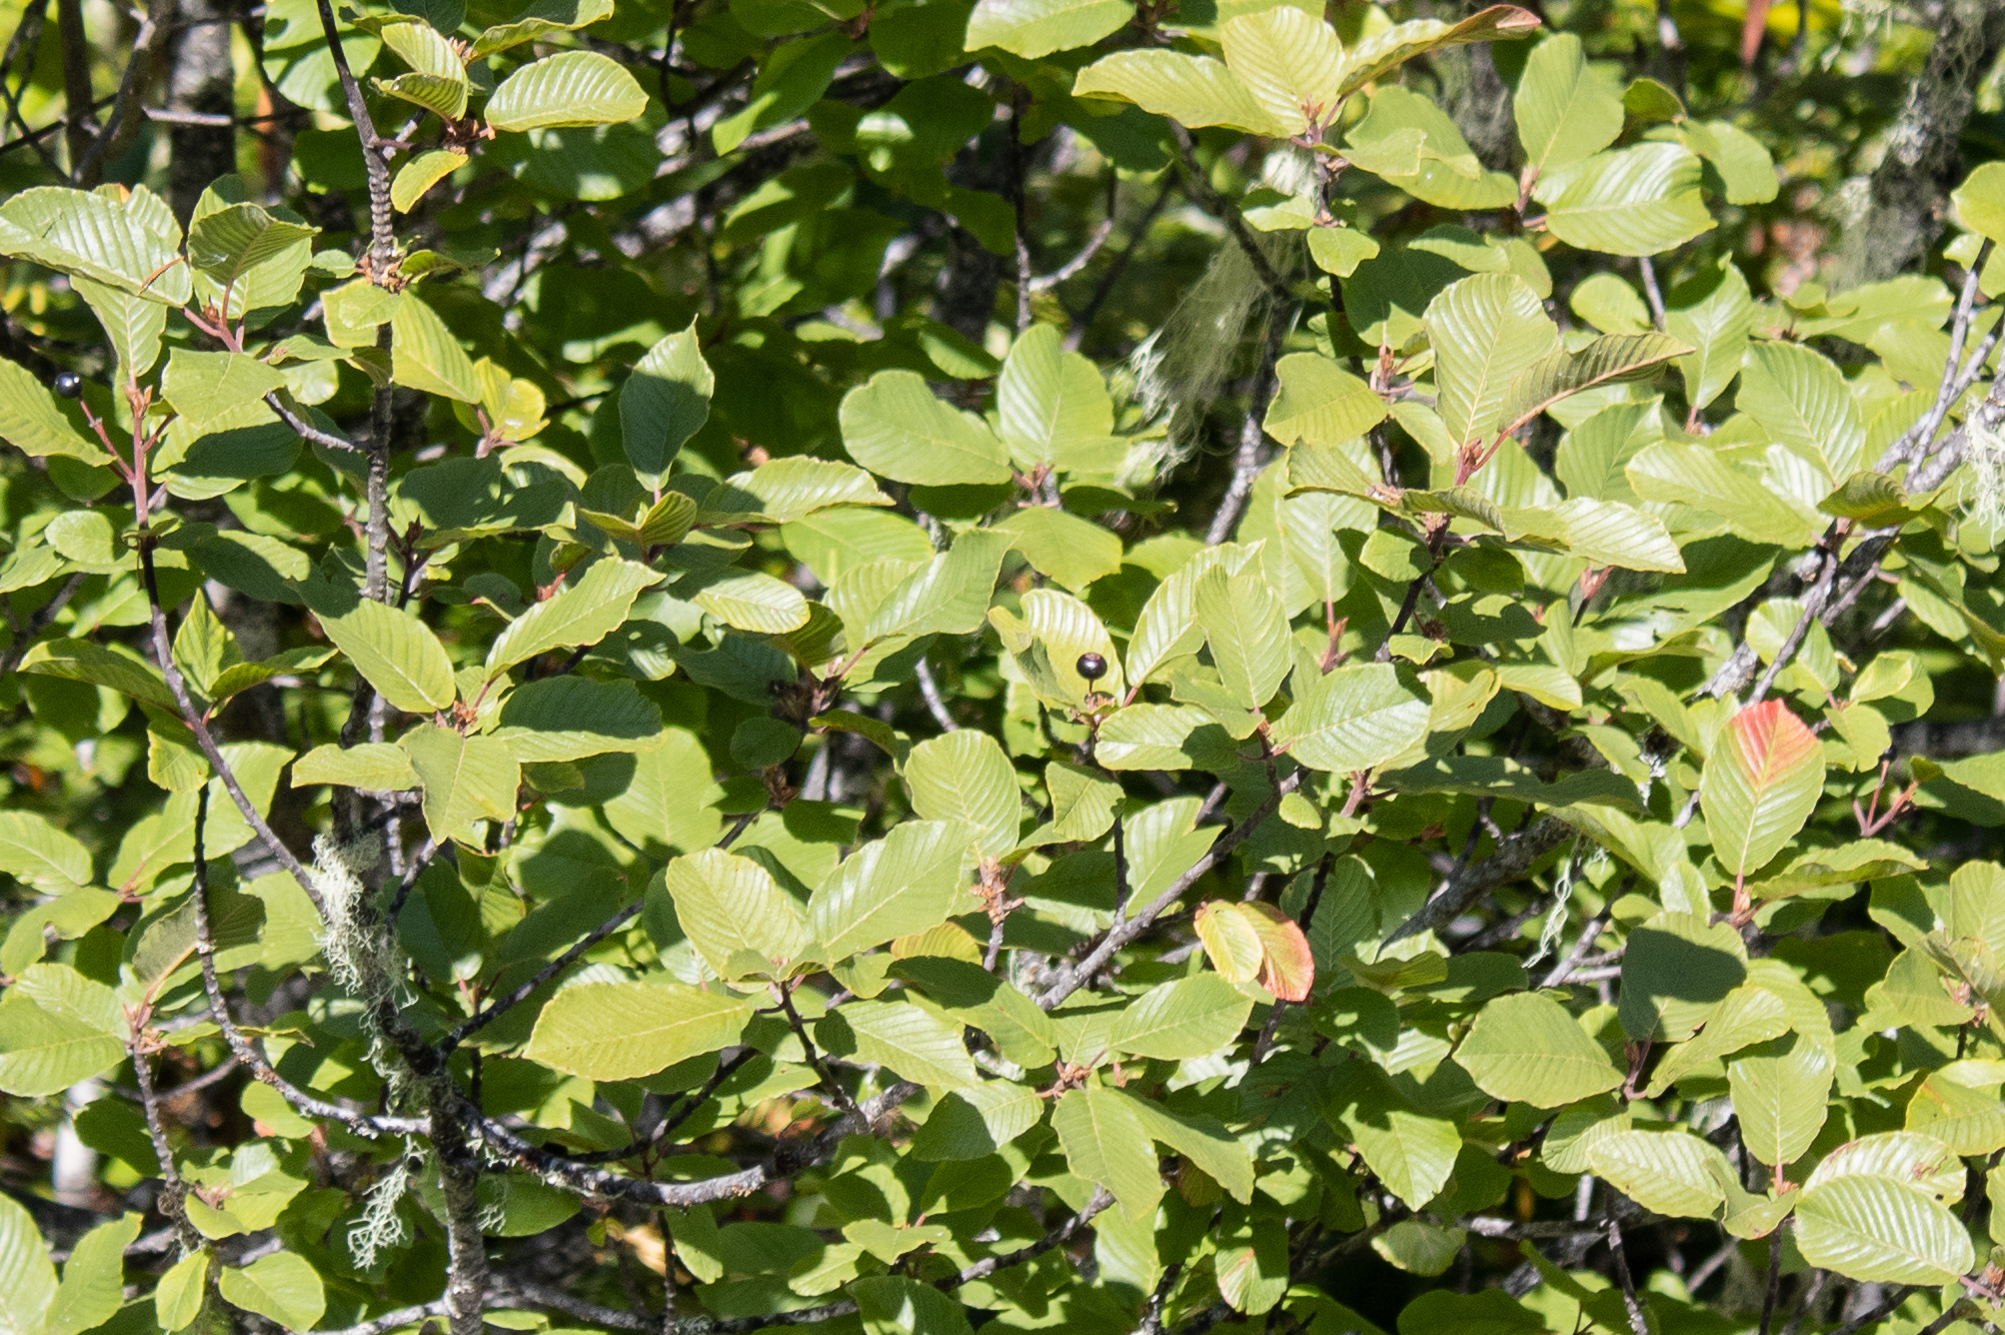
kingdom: Plantae
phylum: Tracheophyta
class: Magnoliopsida
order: Rosales
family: Rhamnaceae
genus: Frangula
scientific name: Frangula purshiana
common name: Cascara buckthorn
